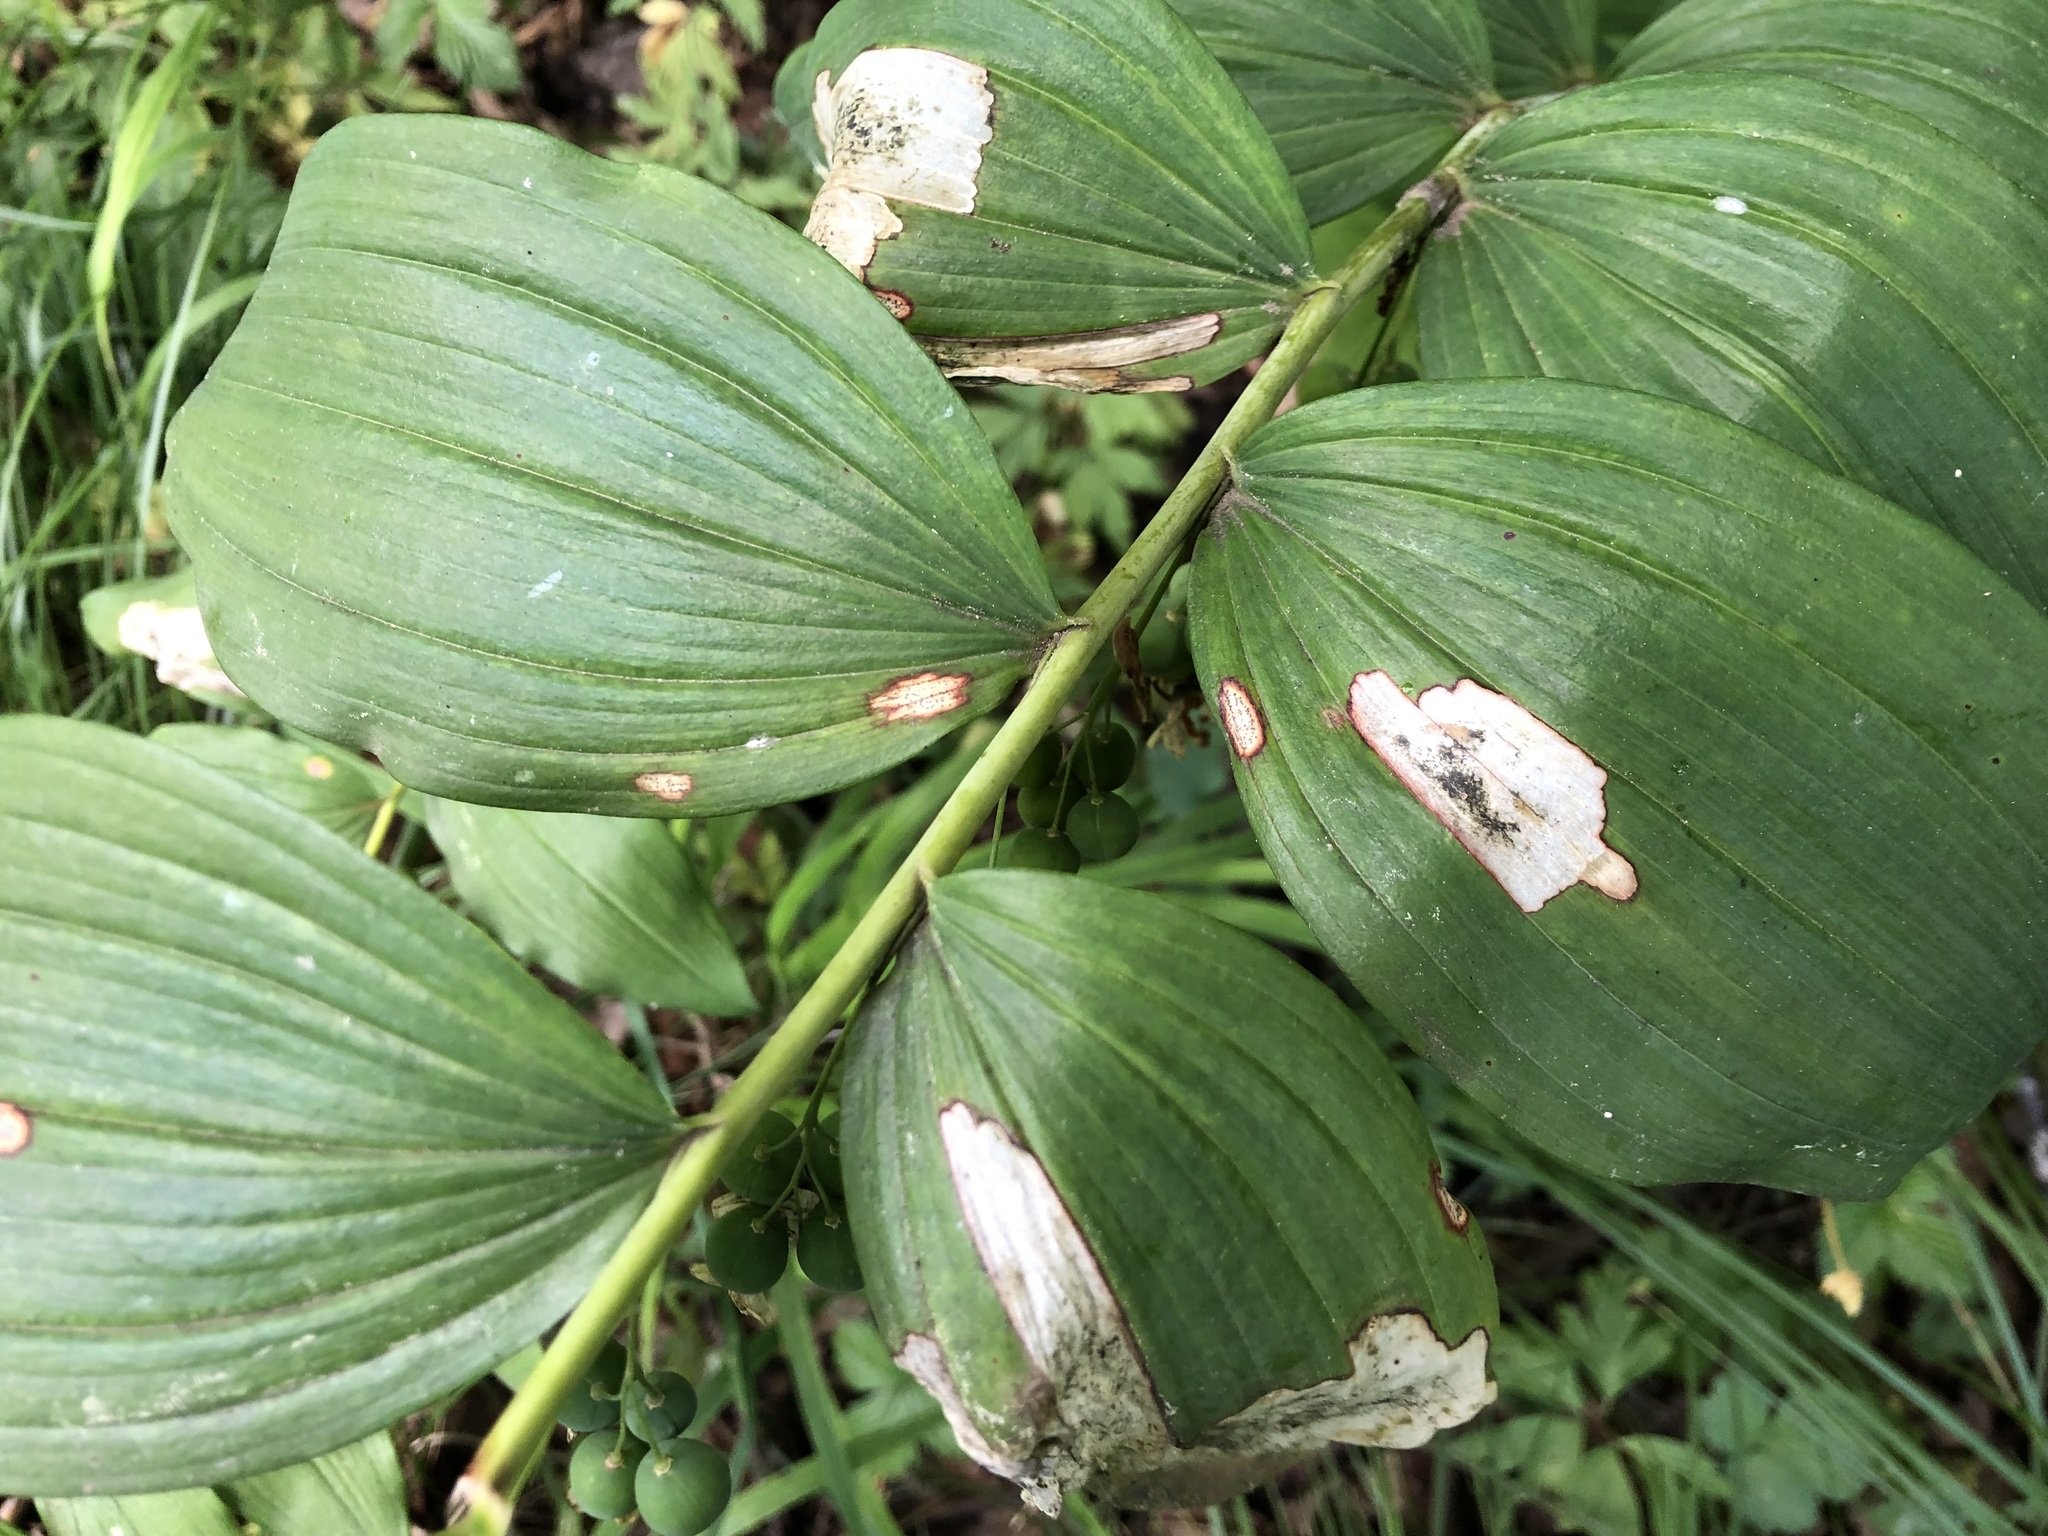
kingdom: Fungi
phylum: Ascomycota
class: Dothideomycetes
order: Botryosphaeriales
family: Phyllostictaceae
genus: Phyllosticta
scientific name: Phyllosticta cruenta
